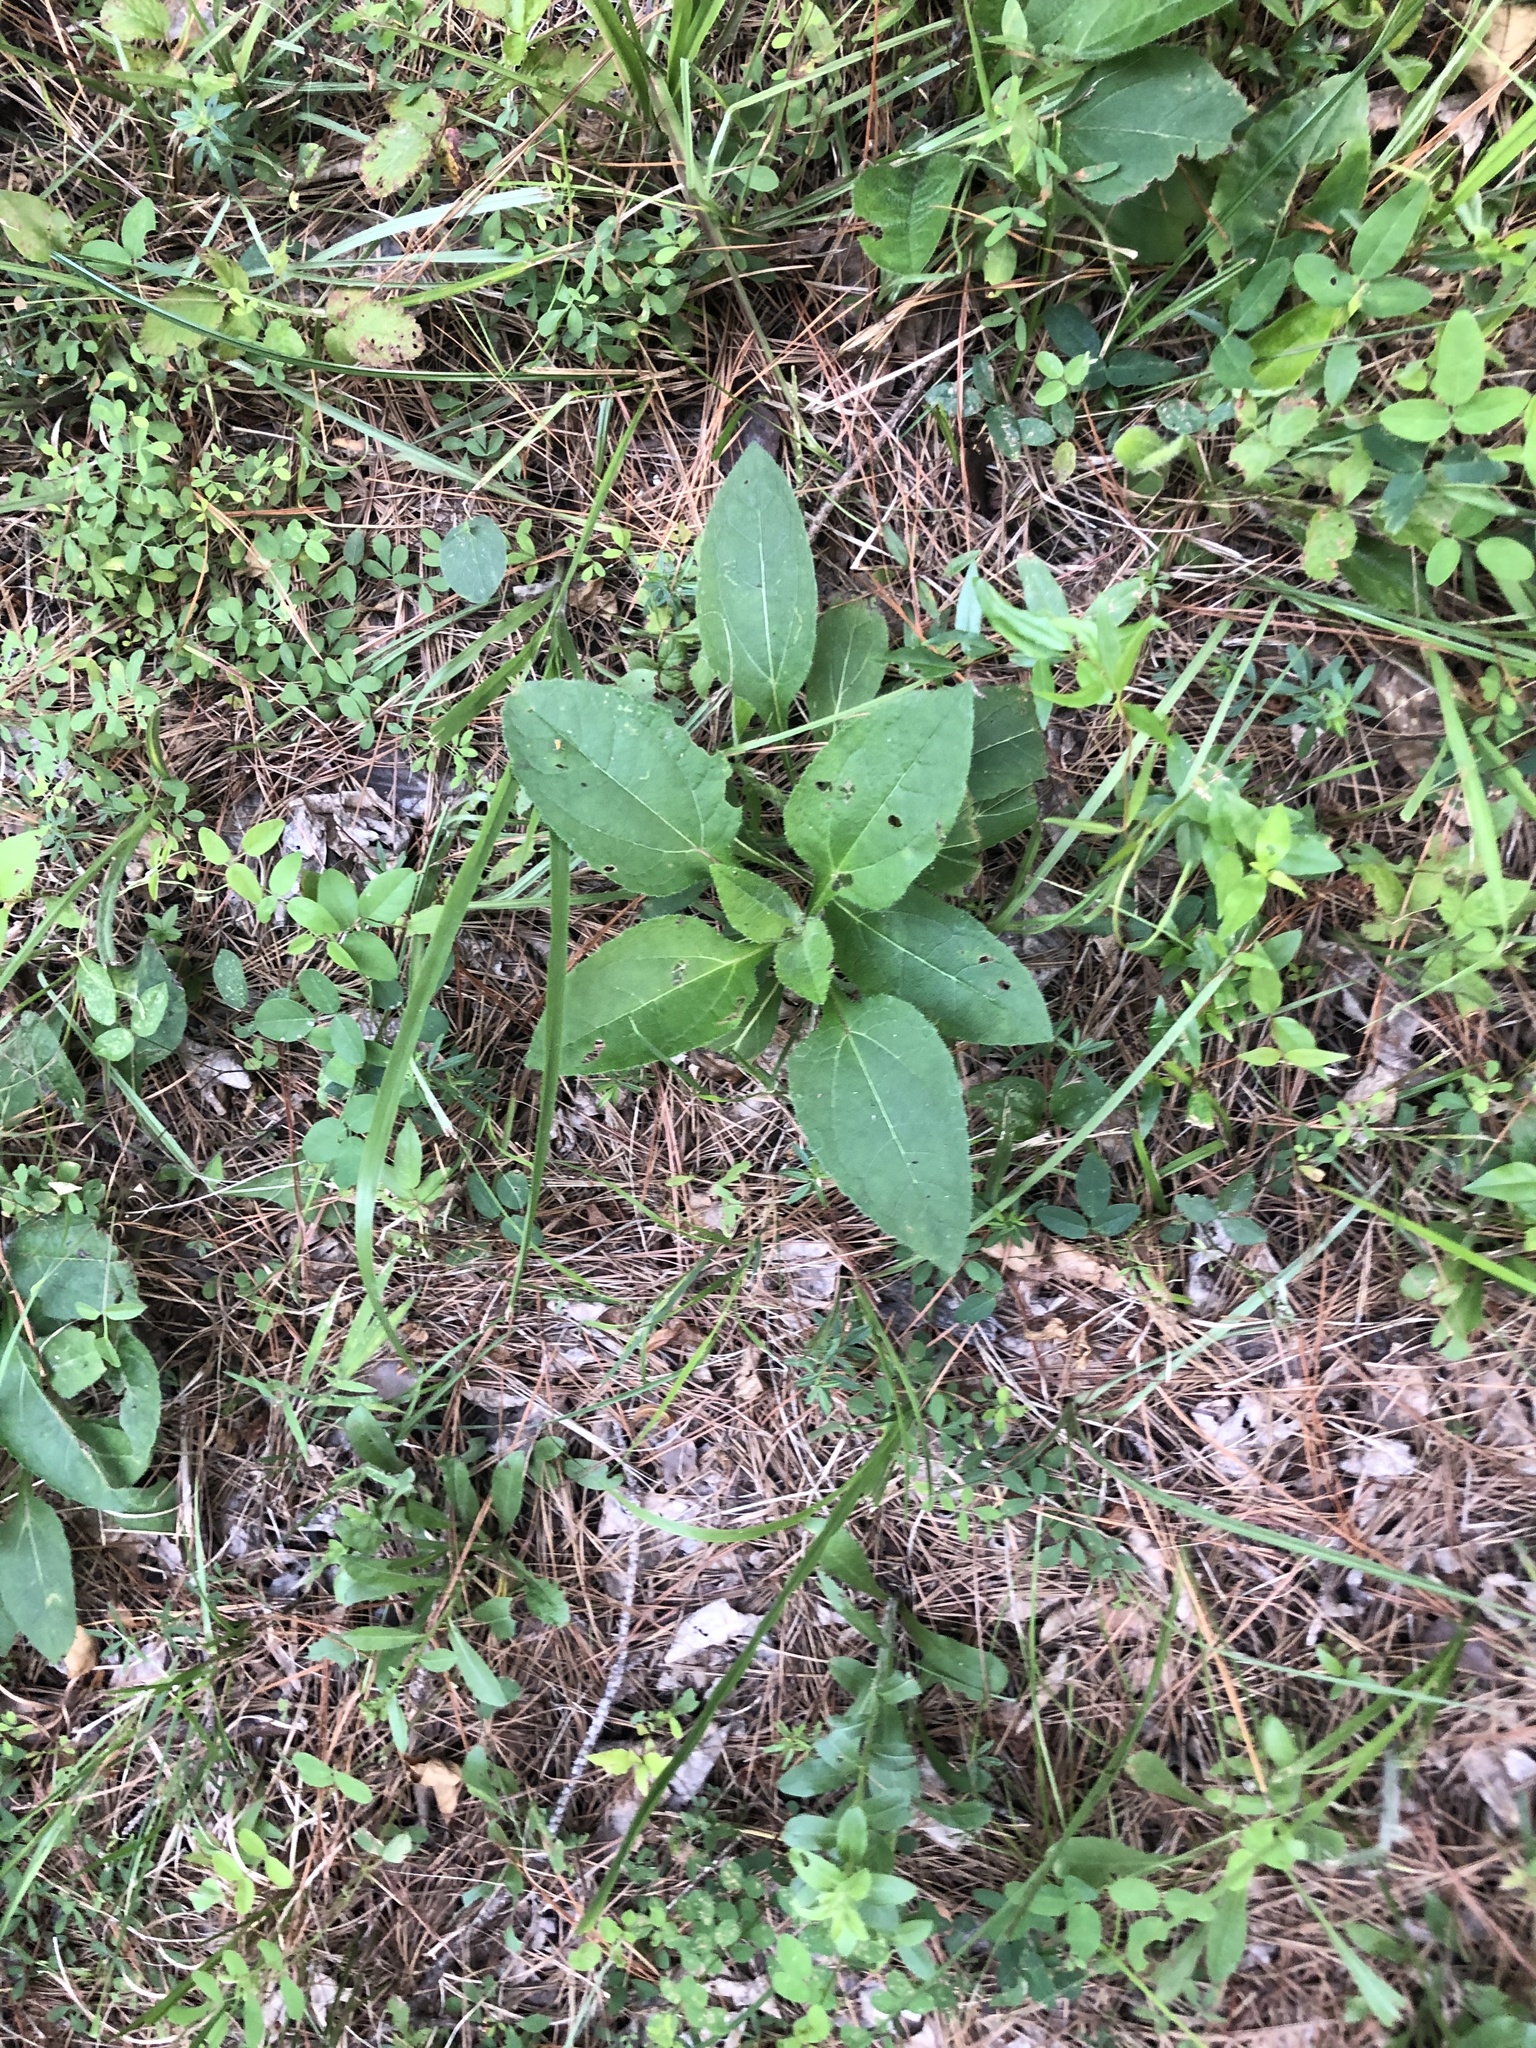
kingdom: Plantae
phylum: Tracheophyta
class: Magnoliopsida
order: Asterales
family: Asteraceae
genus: Helianthus
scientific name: Helianthus atrorubens
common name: Dark-eyed sunflower
